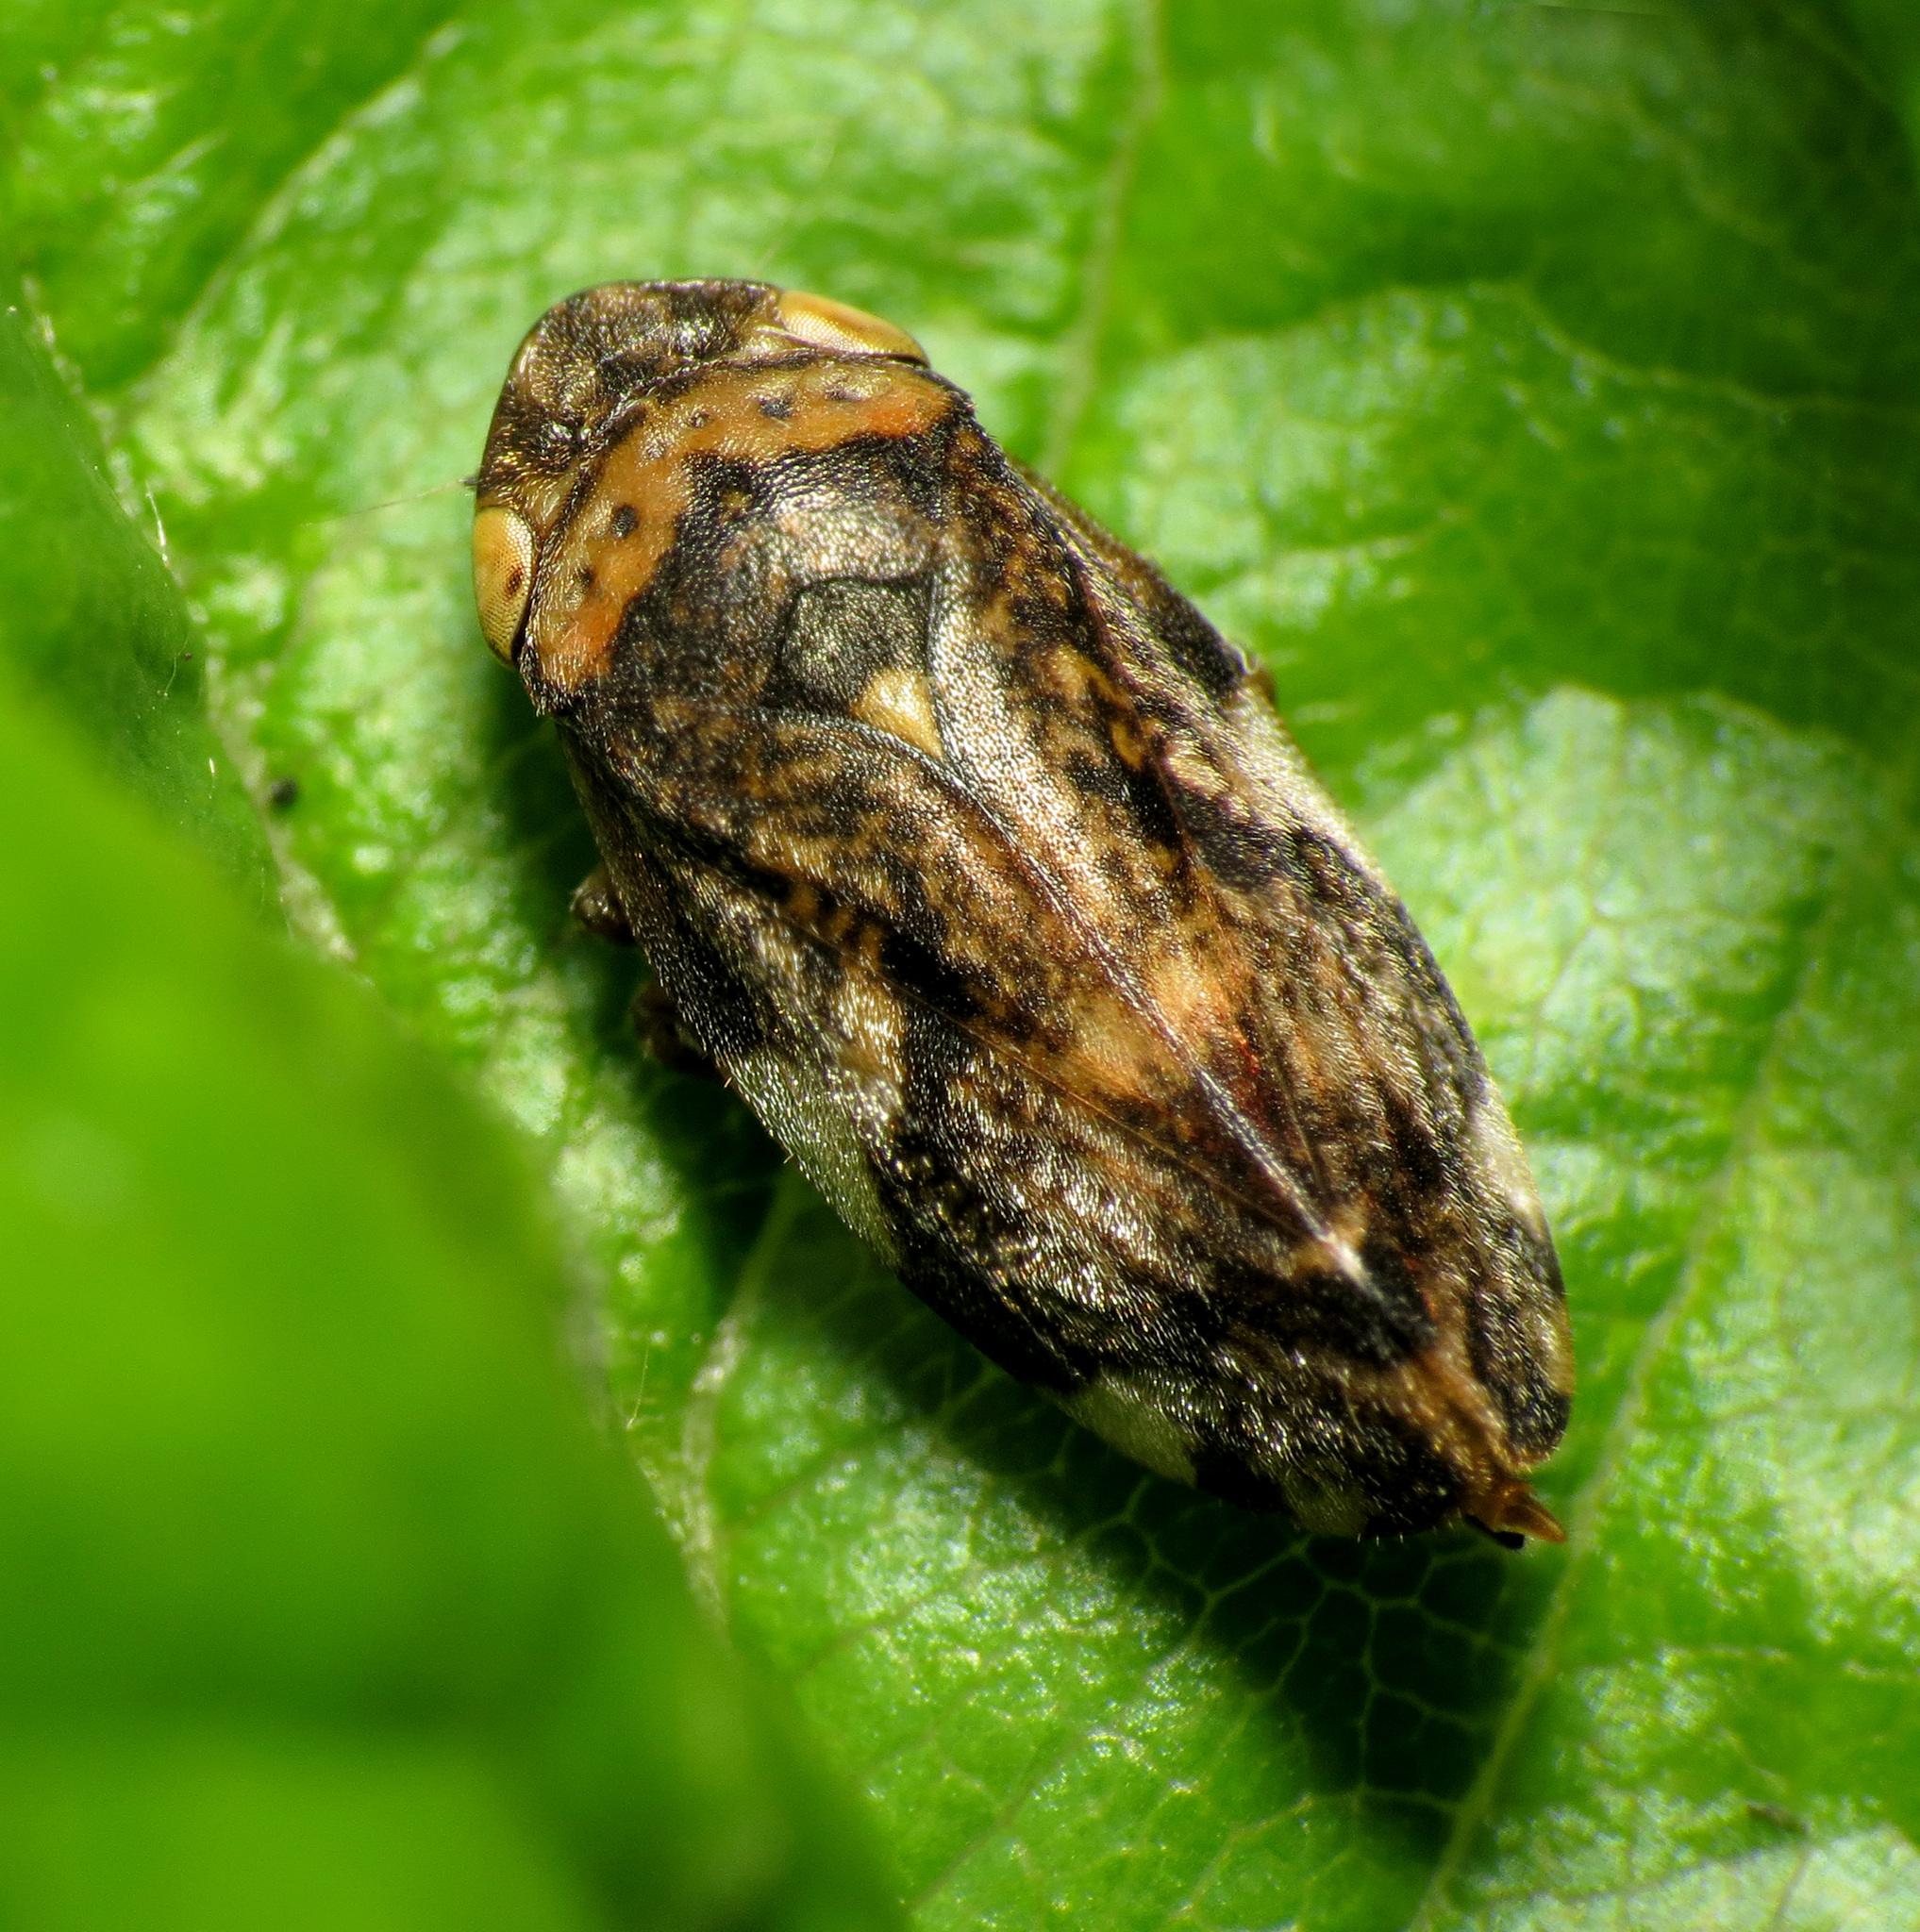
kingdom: Animalia
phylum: Arthropoda
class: Insecta
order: Hemiptera
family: Aphrophoridae
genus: Philaenus
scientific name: Philaenus spumarius
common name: Meadow spittlebug
